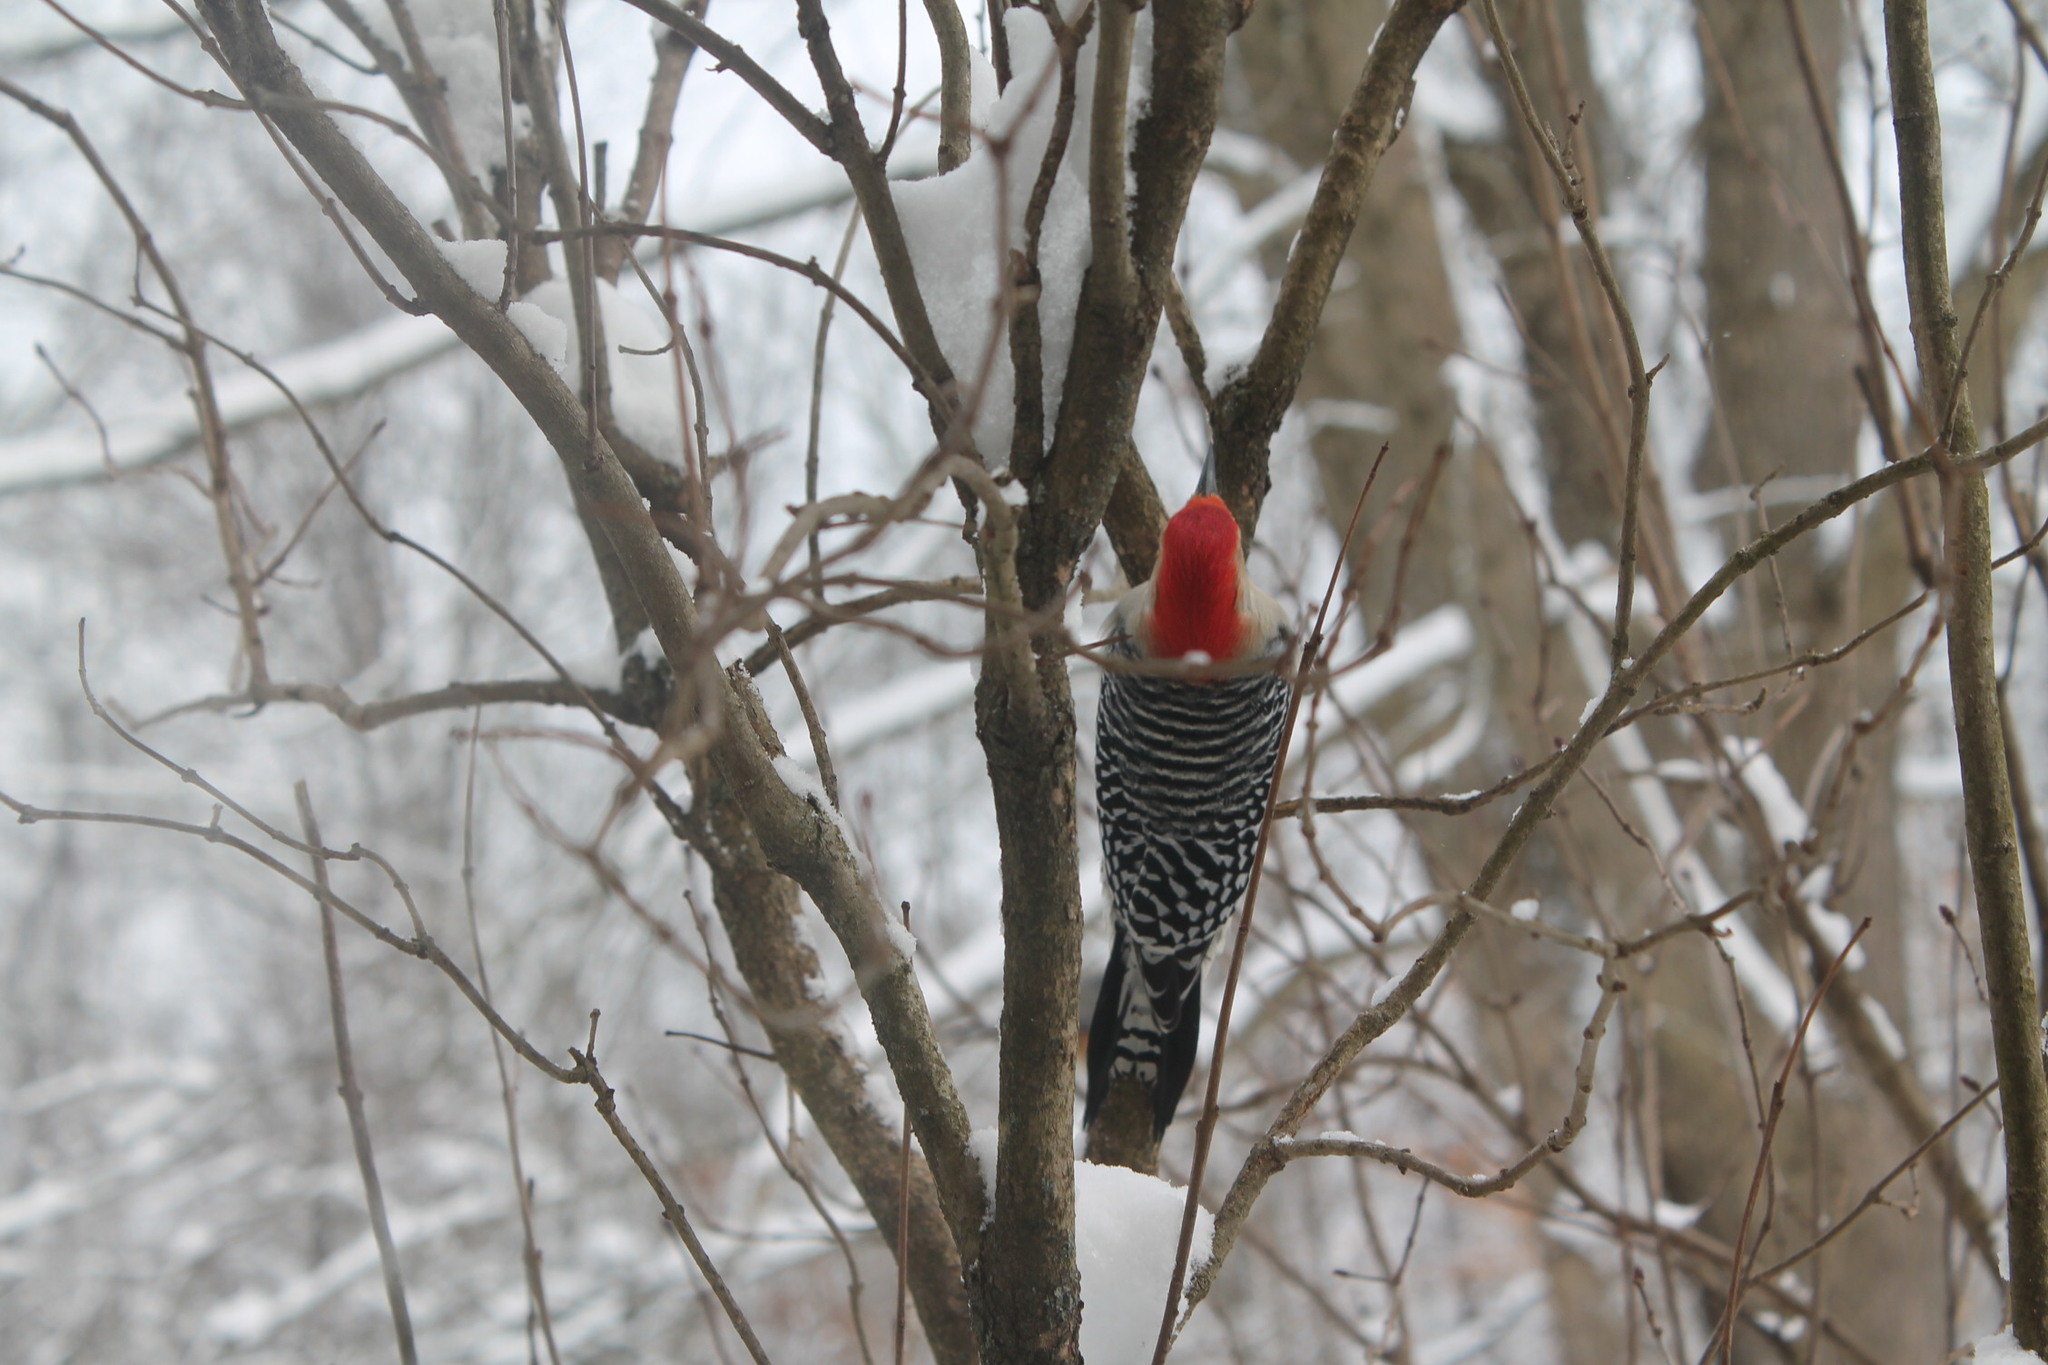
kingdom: Animalia
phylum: Chordata
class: Aves
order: Piciformes
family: Picidae
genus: Melanerpes
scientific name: Melanerpes carolinus
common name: Red-bellied woodpecker
